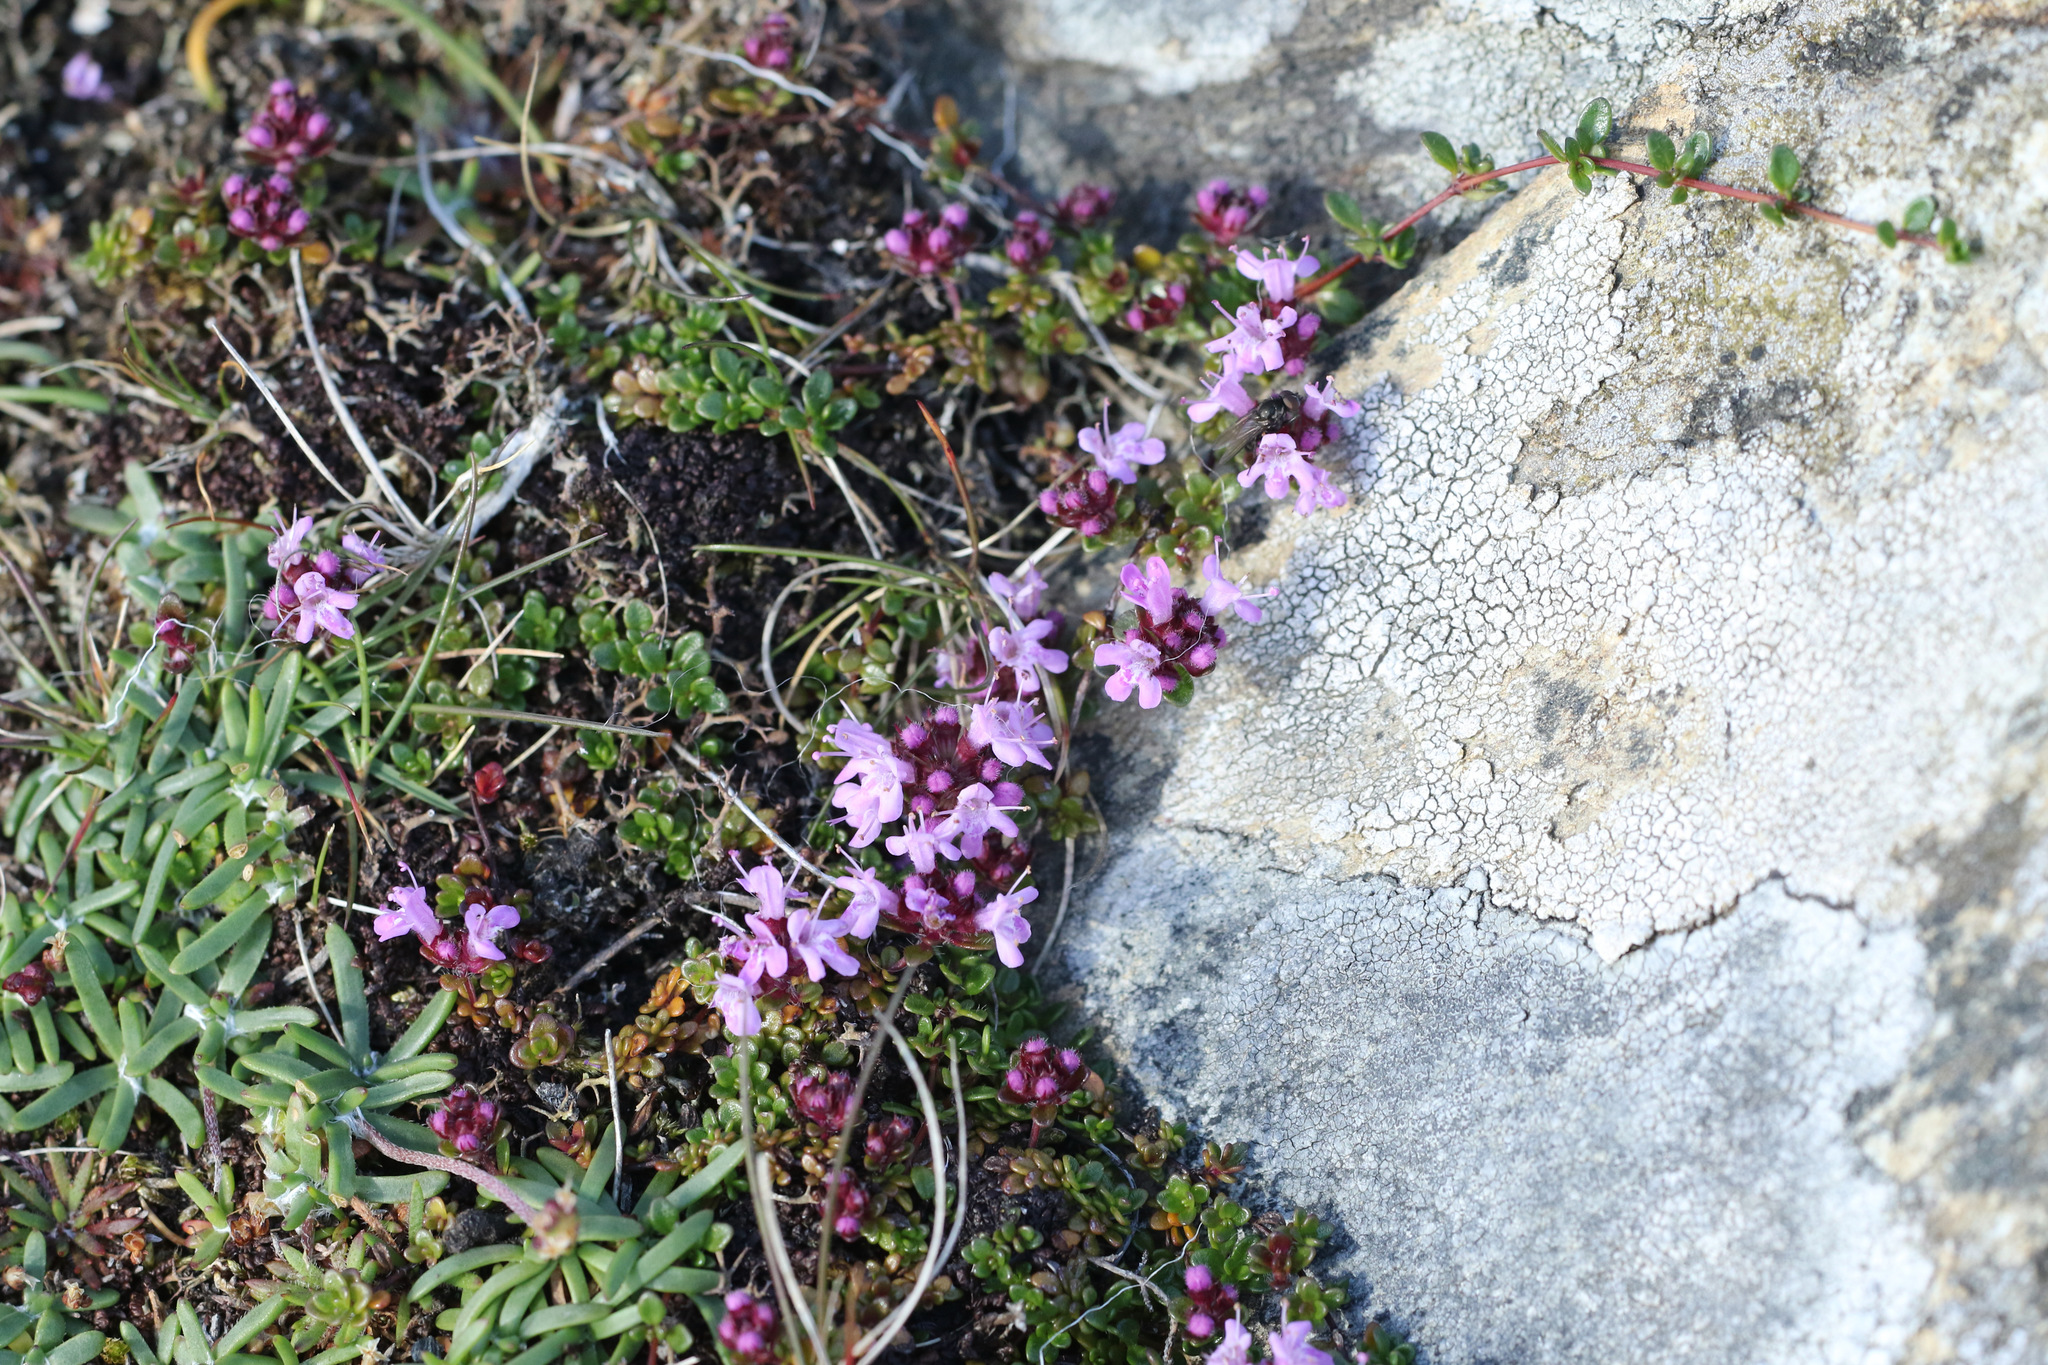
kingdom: Plantae
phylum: Tracheophyta
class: Magnoliopsida
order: Lamiales
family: Lamiaceae
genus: Thymus
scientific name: Thymus praecox
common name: Wild thyme
